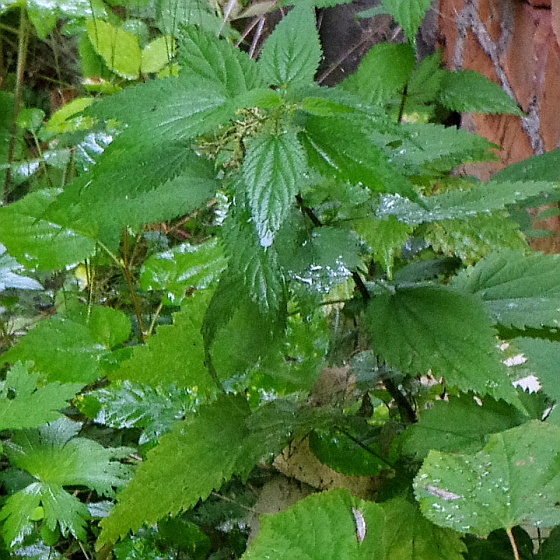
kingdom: Plantae
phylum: Tracheophyta
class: Magnoliopsida
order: Rosales
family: Urticaceae
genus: Urtica
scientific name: Urtica dioica
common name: Common nettle
